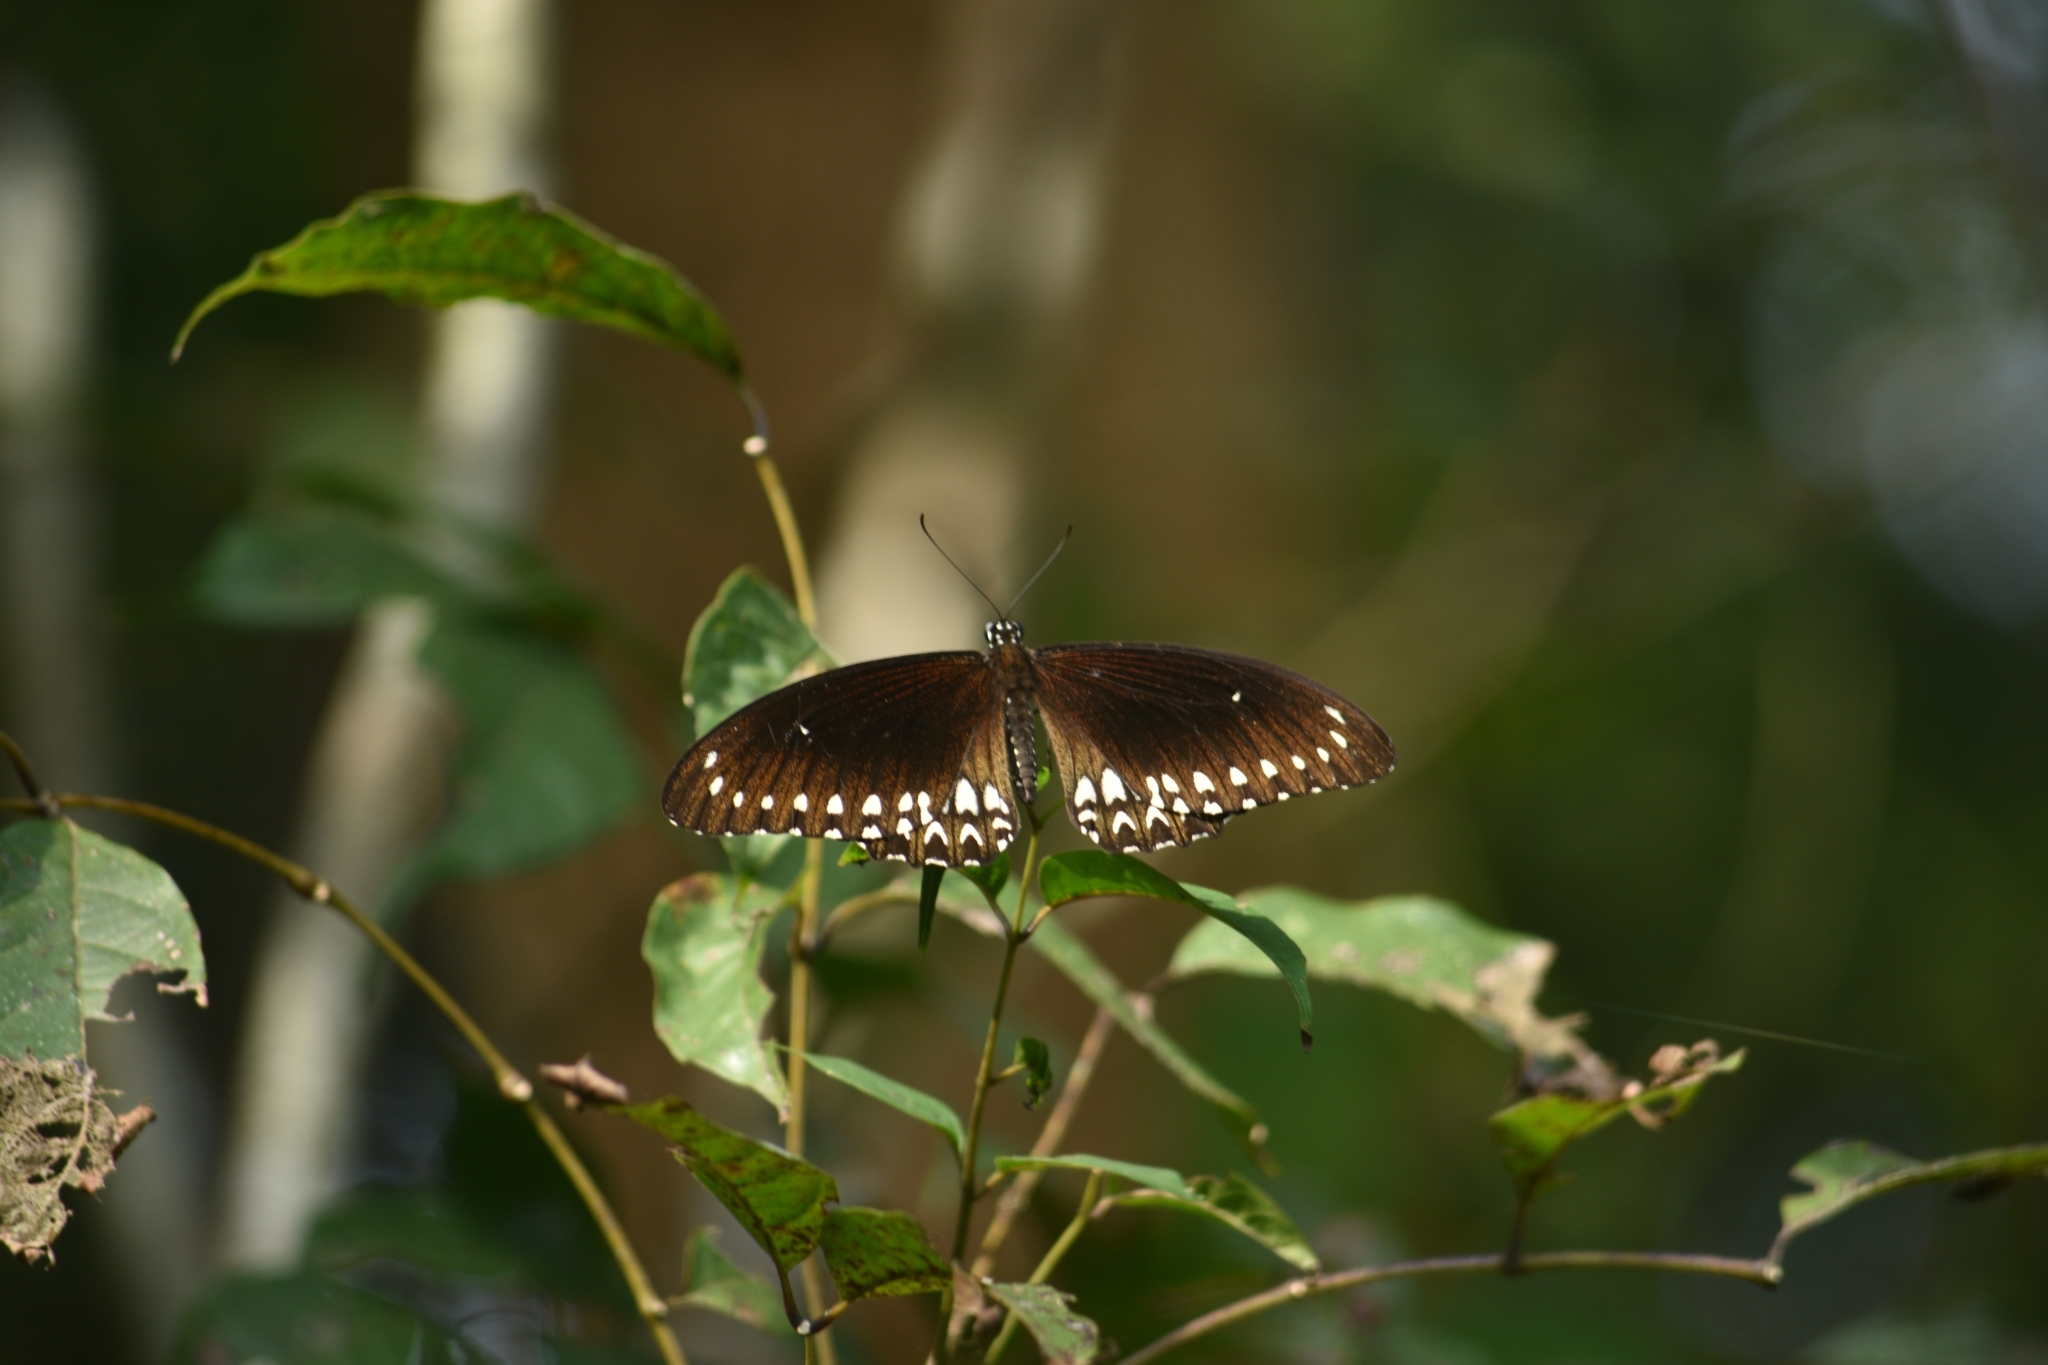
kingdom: Animalia
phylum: Arthropoda
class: Insecta
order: Lepidoptera
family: Papilionidae
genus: Papilio
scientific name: Papilio dravidarum
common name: Malabar raven
